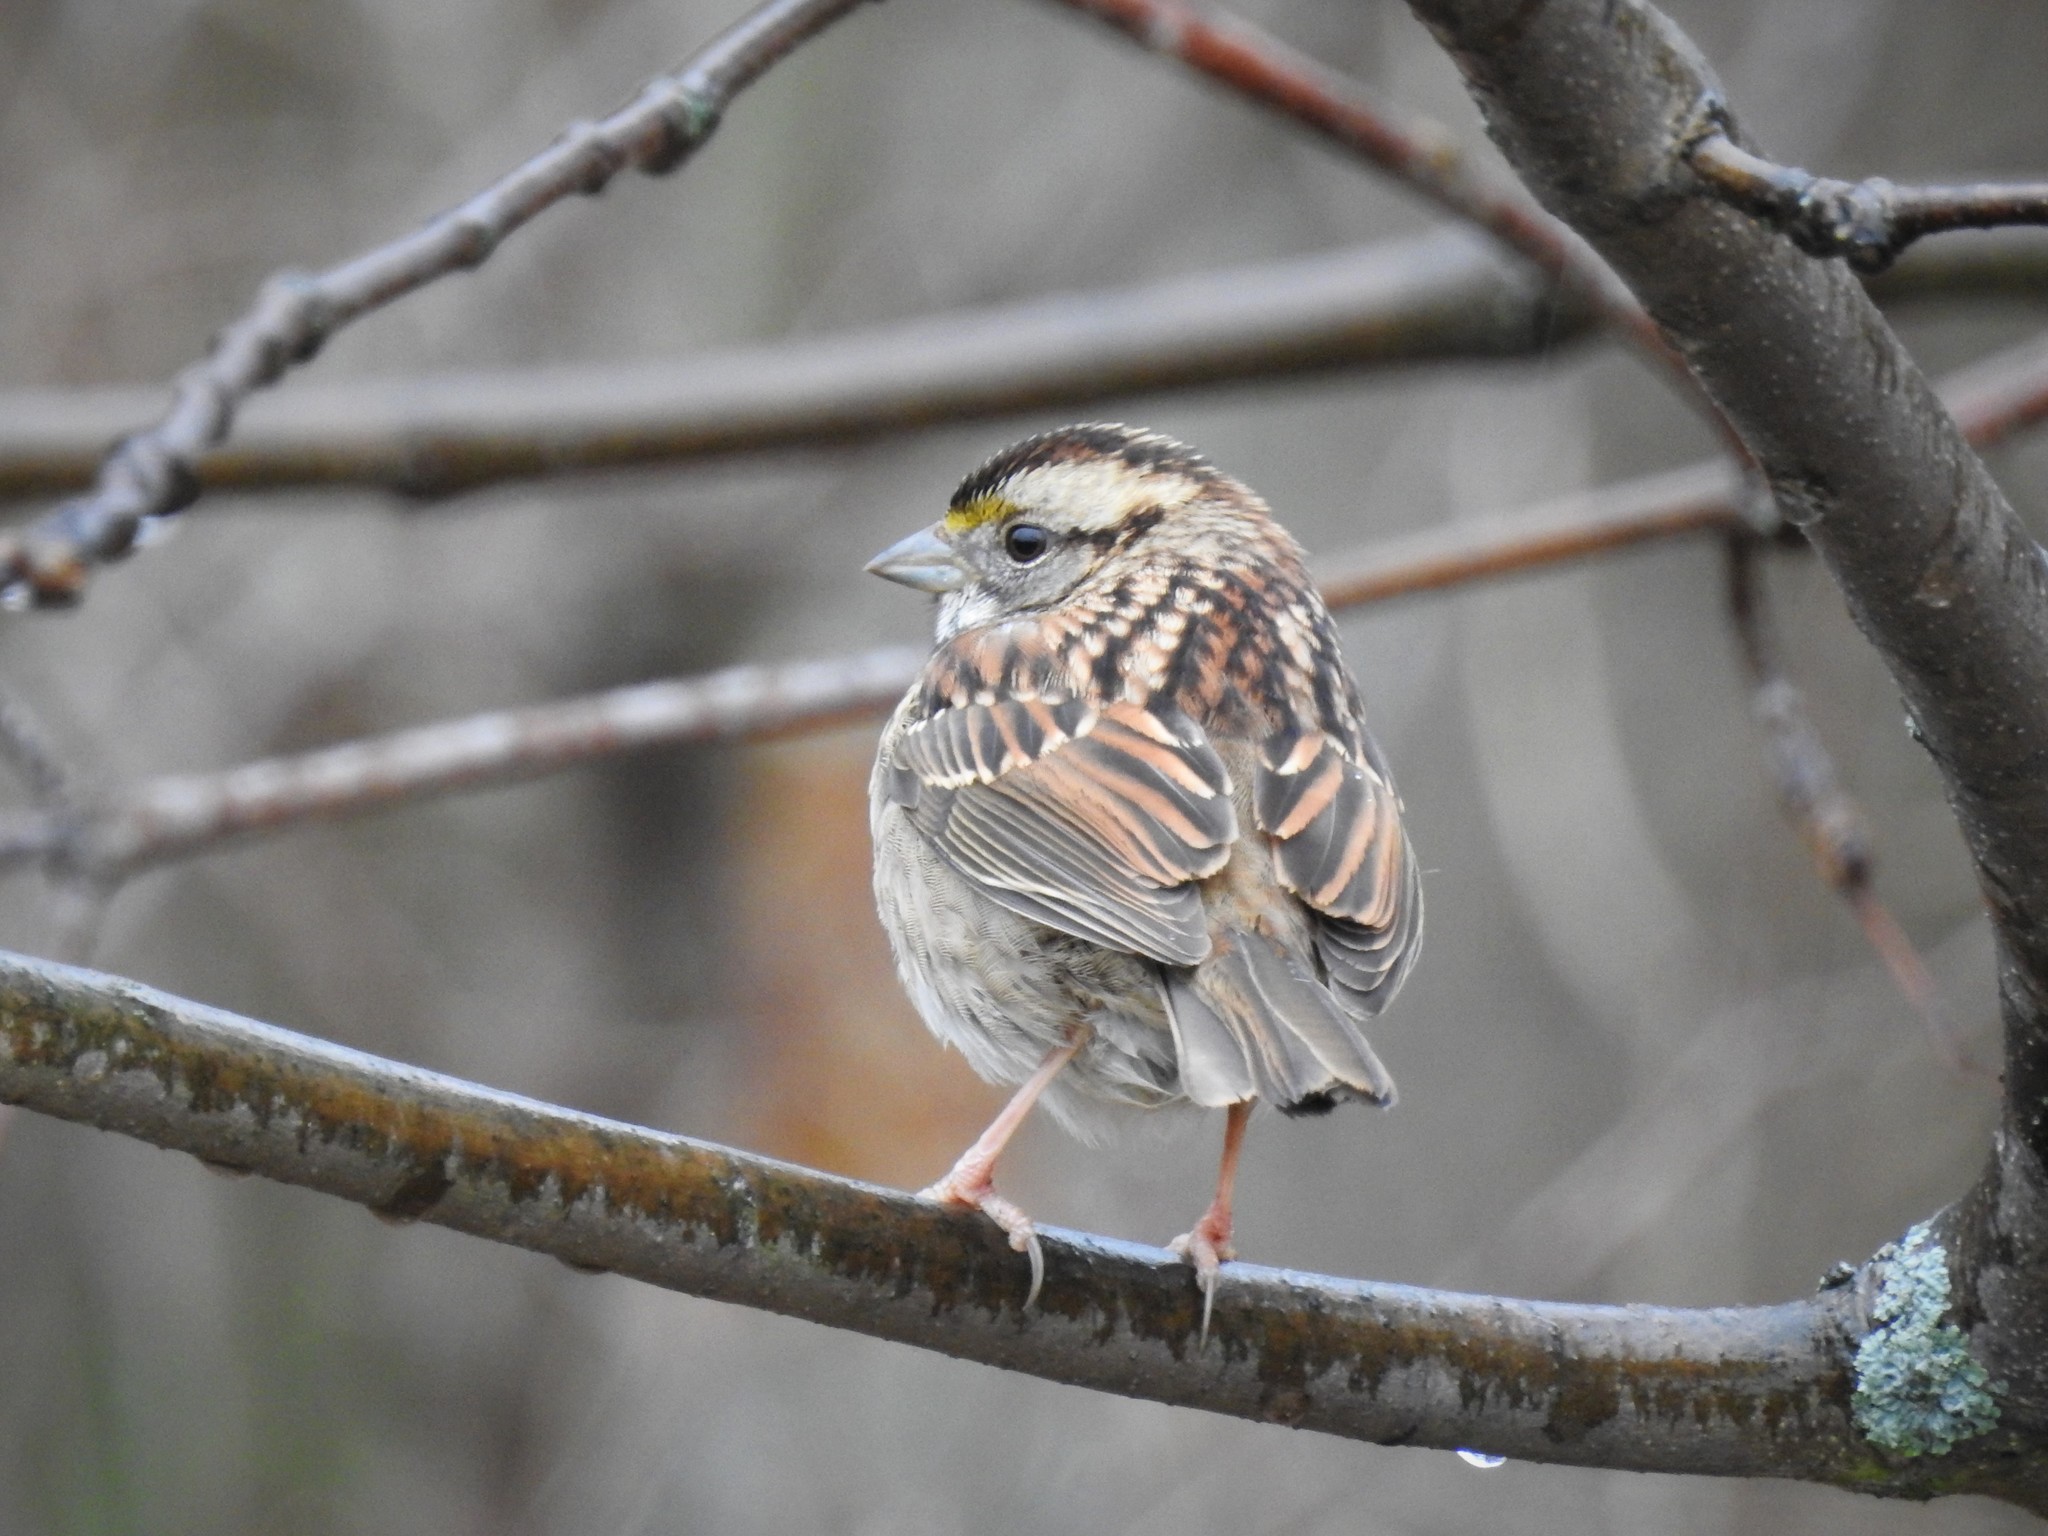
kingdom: Animalia
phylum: Chordata
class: Aves
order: Passeriformes
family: Passerellidae
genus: Zonotrichia
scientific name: Zonotrichia albicollis
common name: White-throated sparrow
